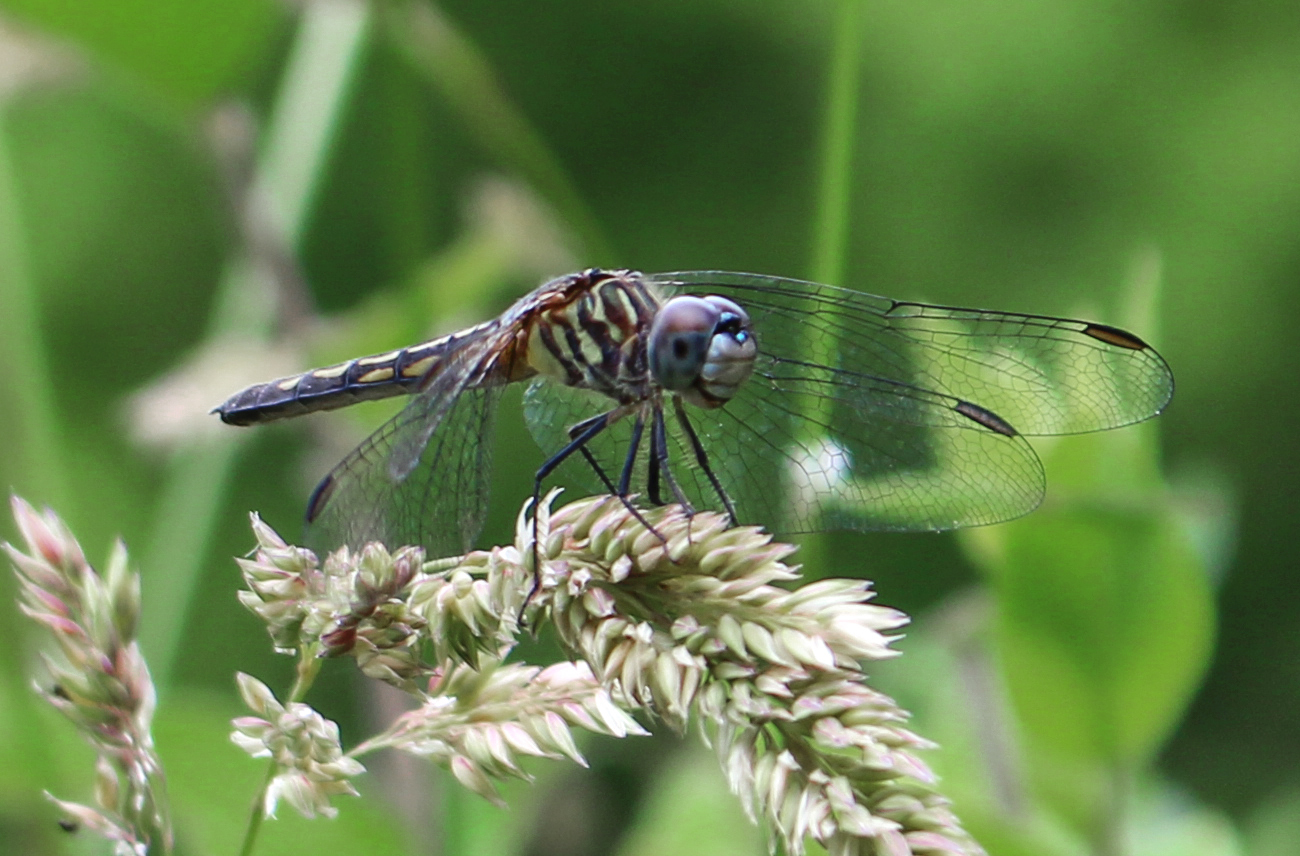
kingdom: Animalia
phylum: Arthropoda
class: Insecta
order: Odonata
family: Libellulidae
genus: Pachydiplax
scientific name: Pachydiplax longipennis
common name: Blue dasher
